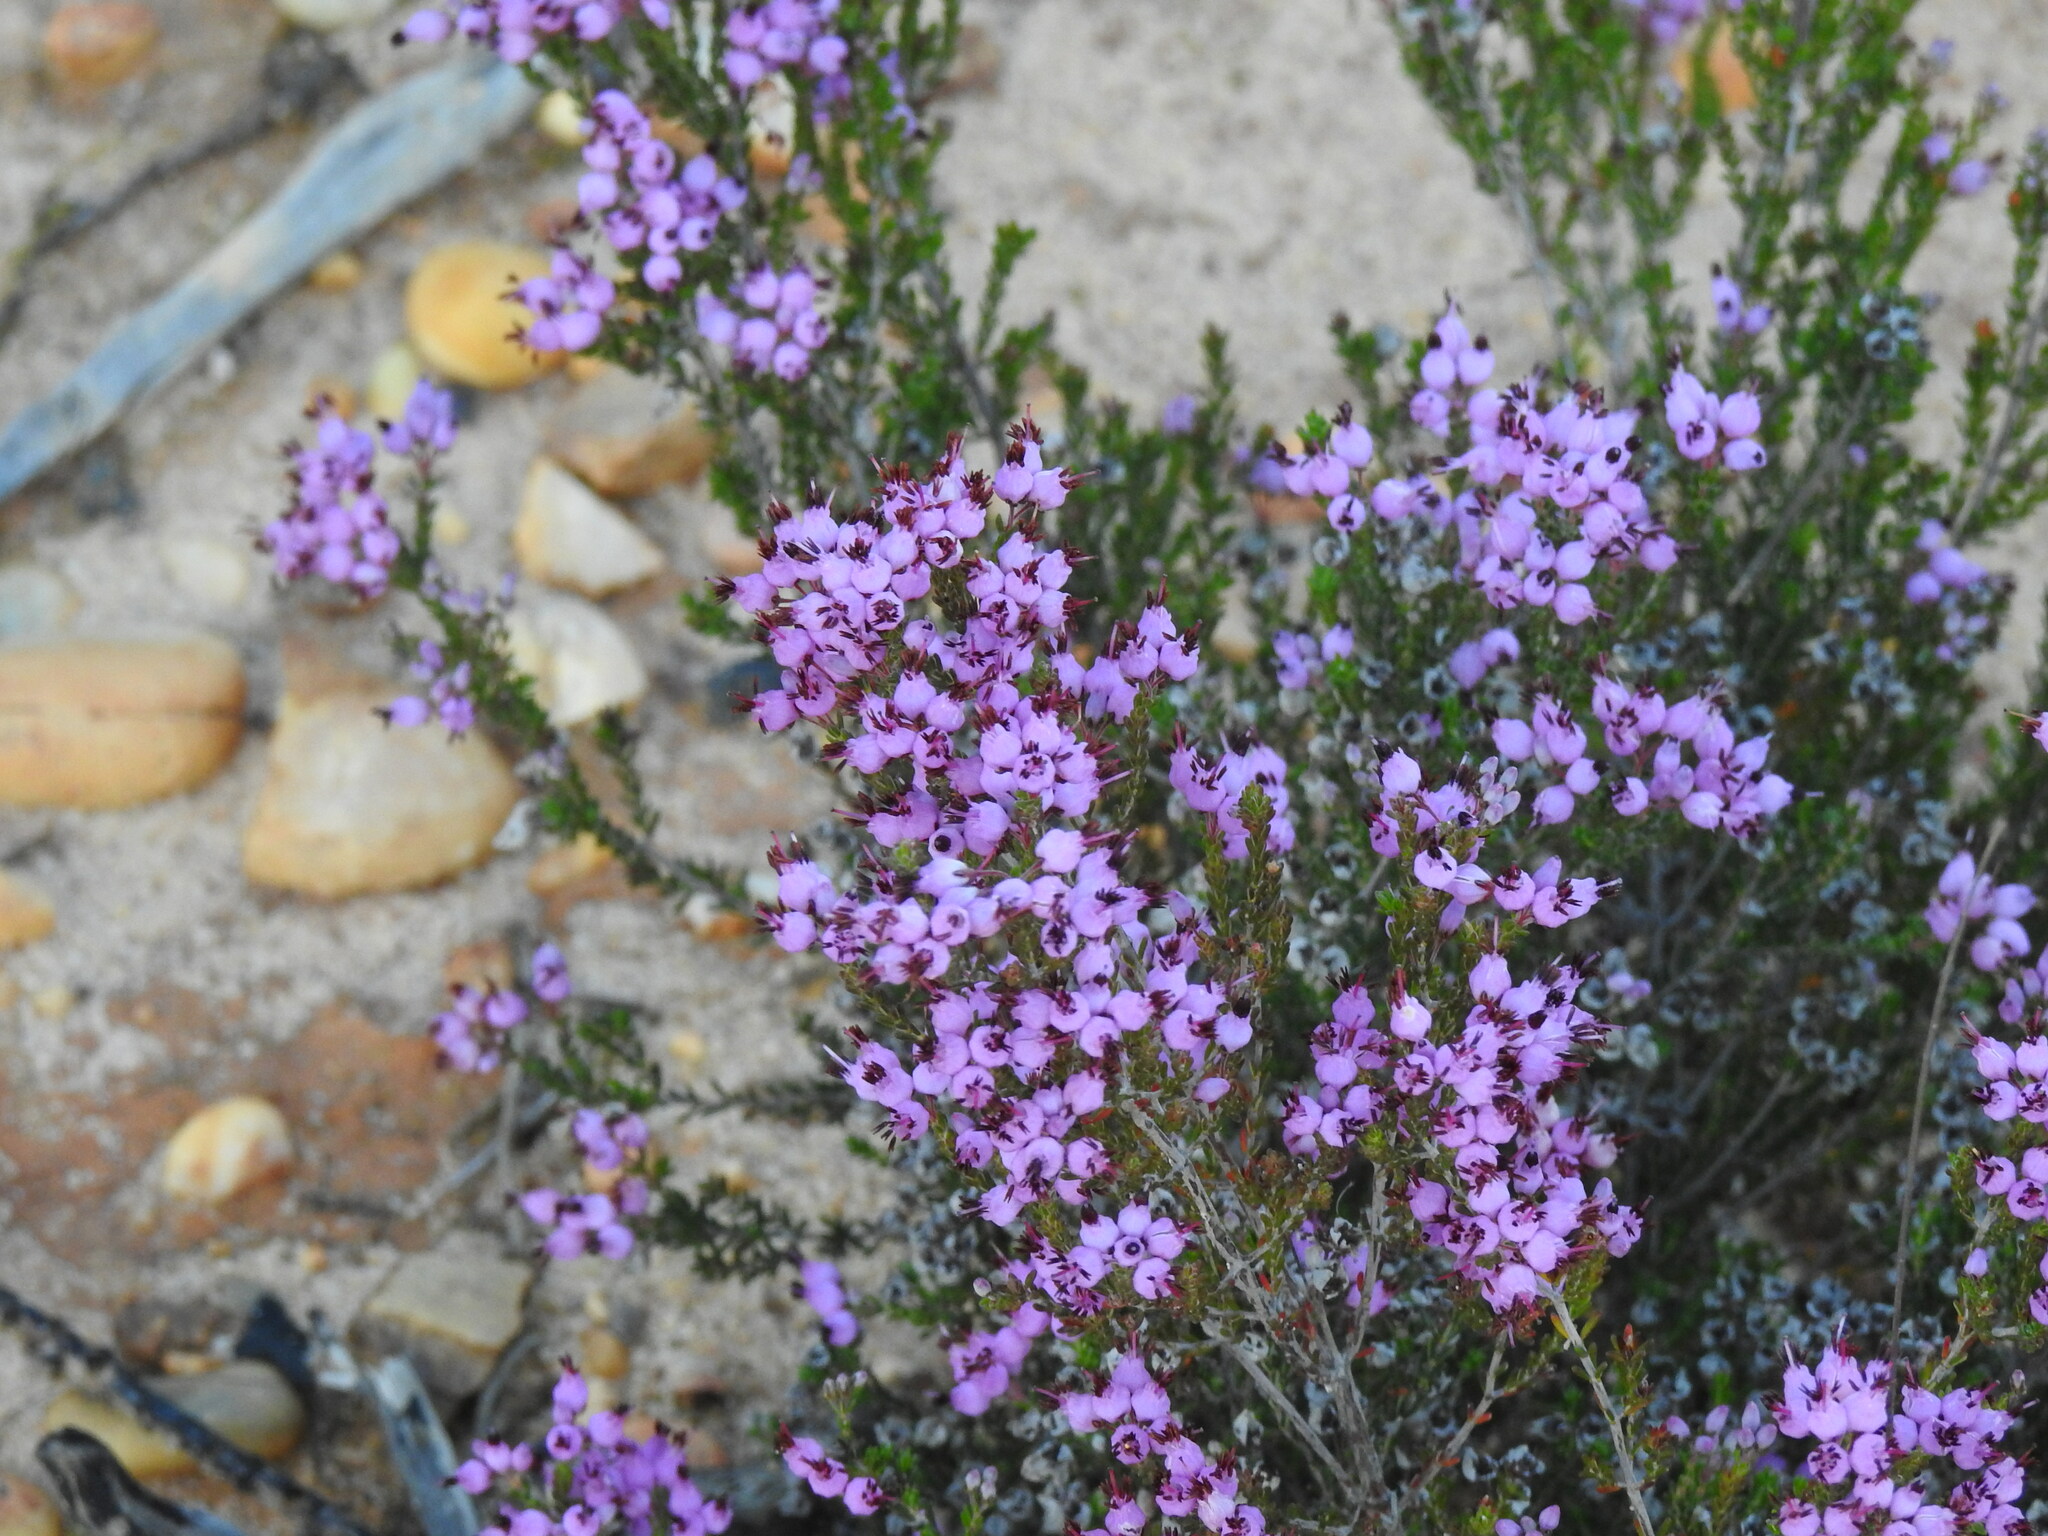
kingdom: Plantae
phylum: Tracheophyta
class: Magnoliopsida
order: Ericales
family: Ericaceae
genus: Erica
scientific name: Erica umbellata
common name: Dwarf spanish heath
